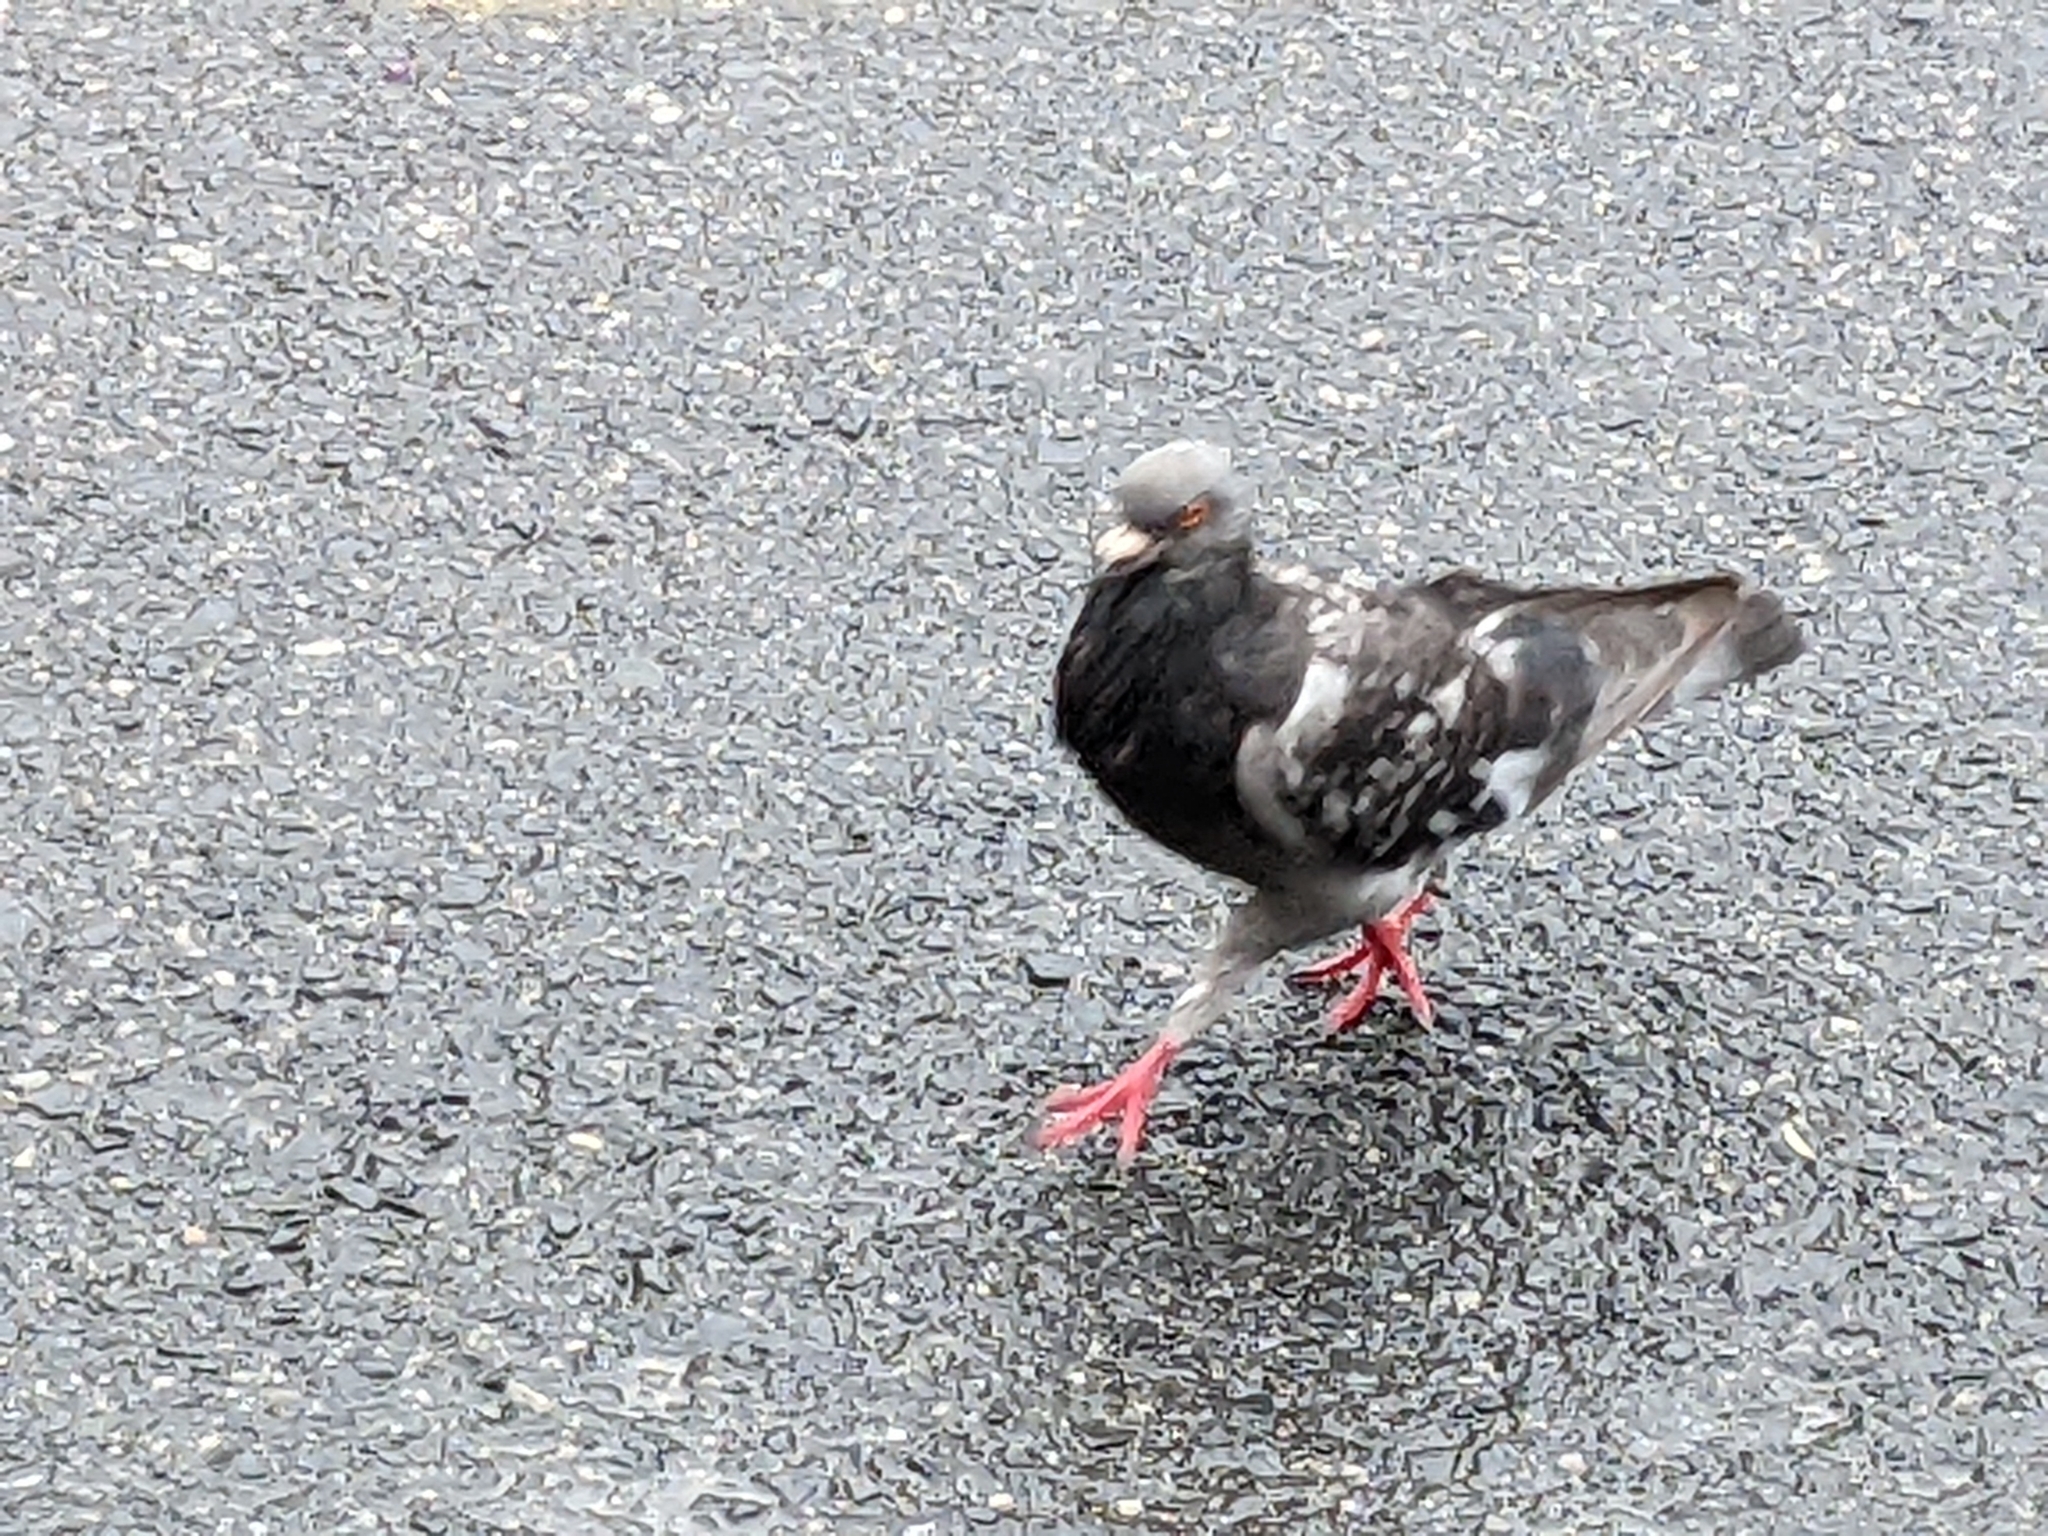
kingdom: Animalia
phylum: Chordata
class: Aves
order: Columbiformes
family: Columbidae
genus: Columba
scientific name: Columba livia
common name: Rock pigeon
